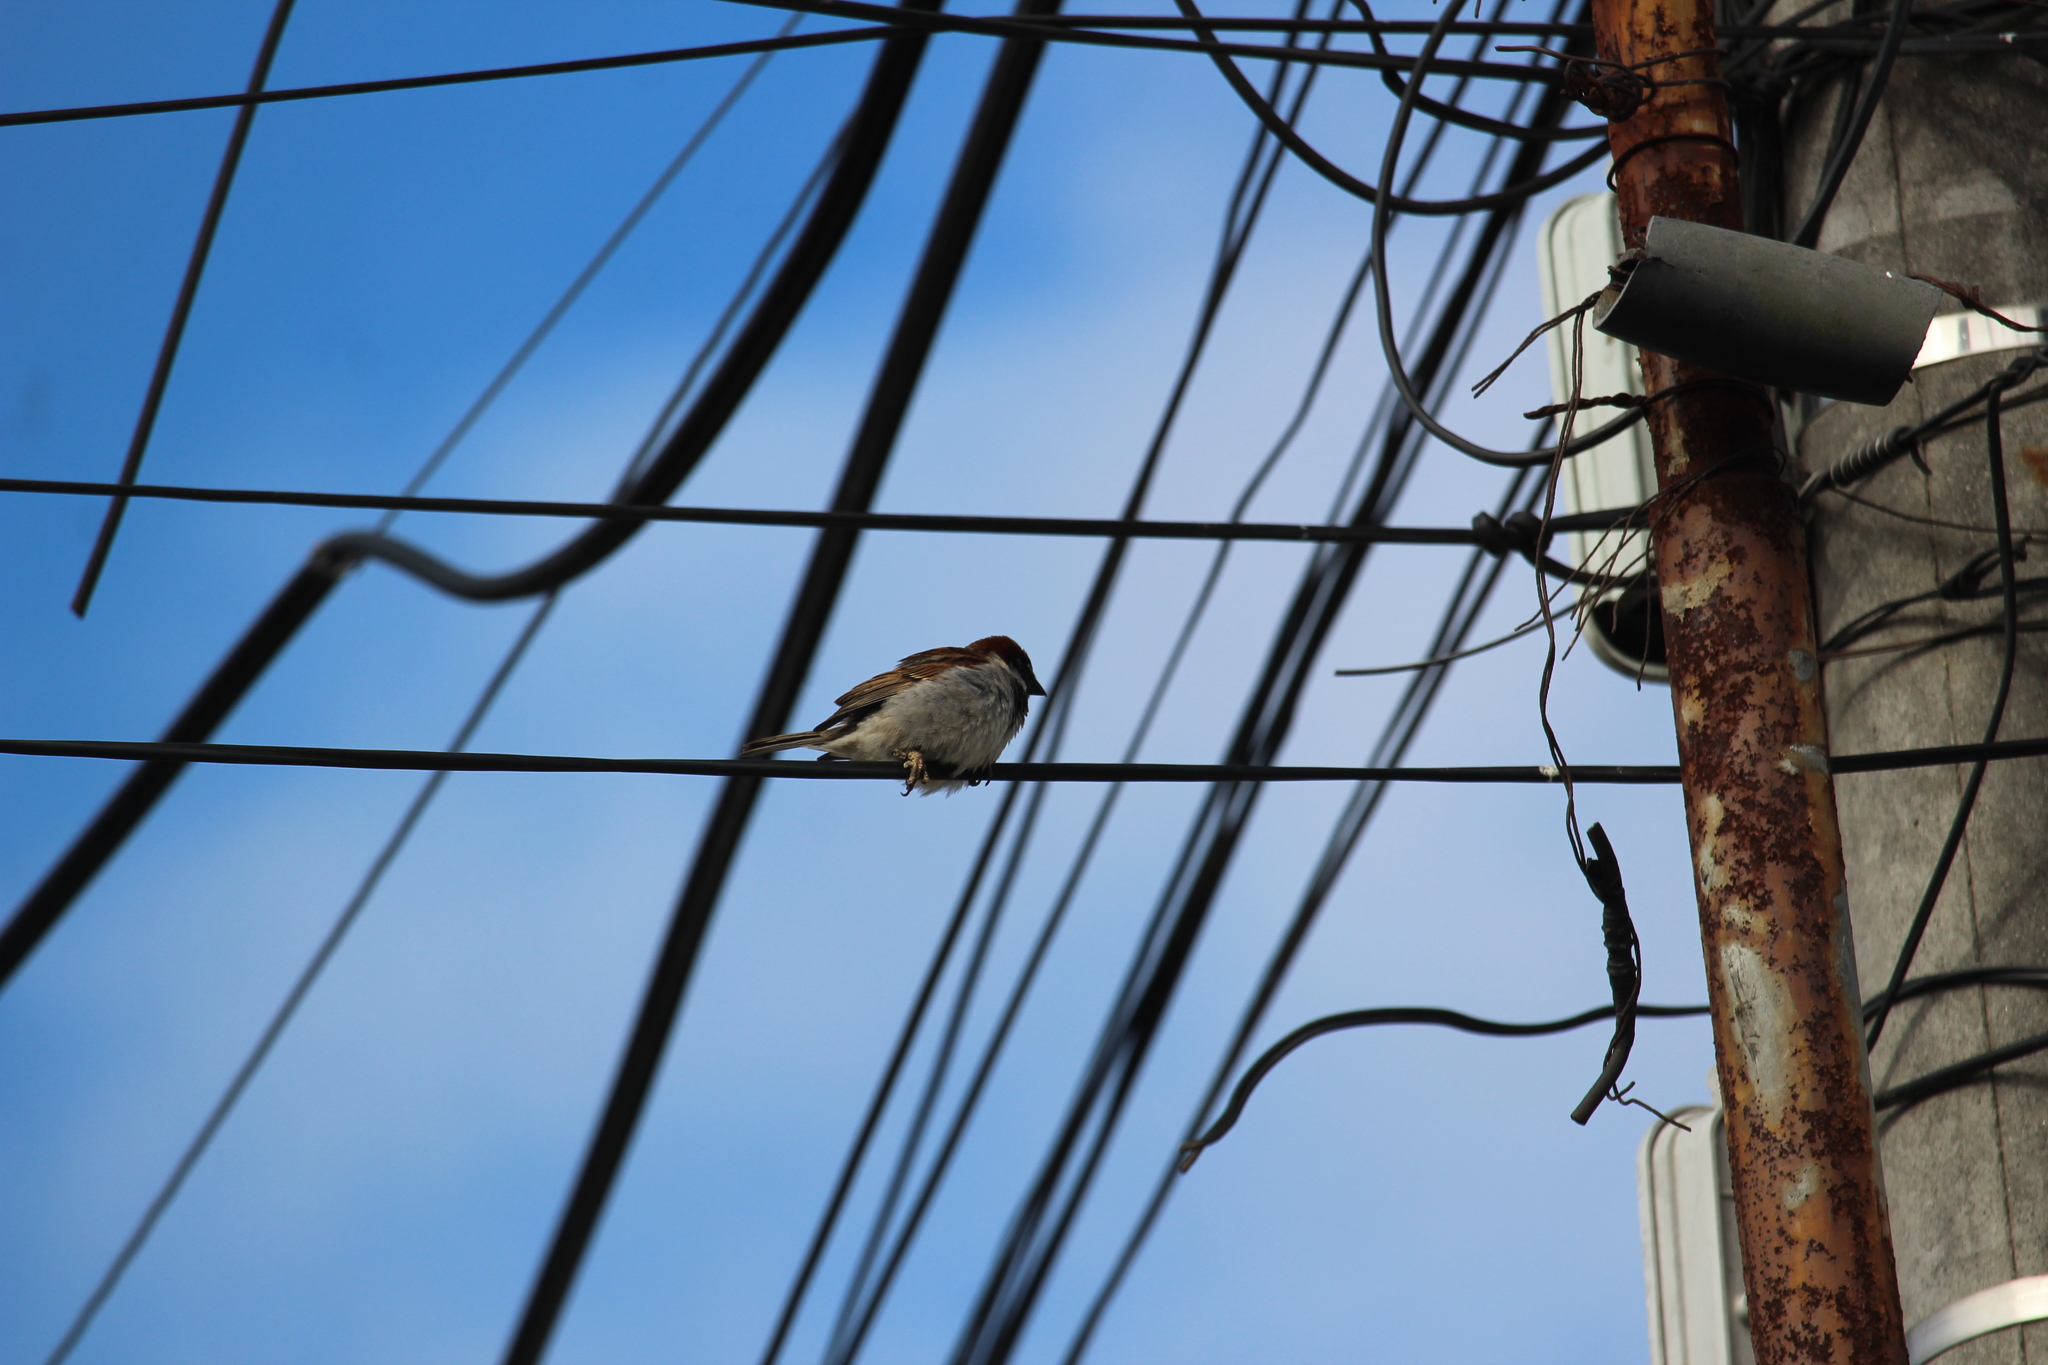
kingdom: Animalia
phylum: Chordata
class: Aves
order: Passeriformes
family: Passeridae
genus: Passer
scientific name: Passer domesticus
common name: House sparrow
